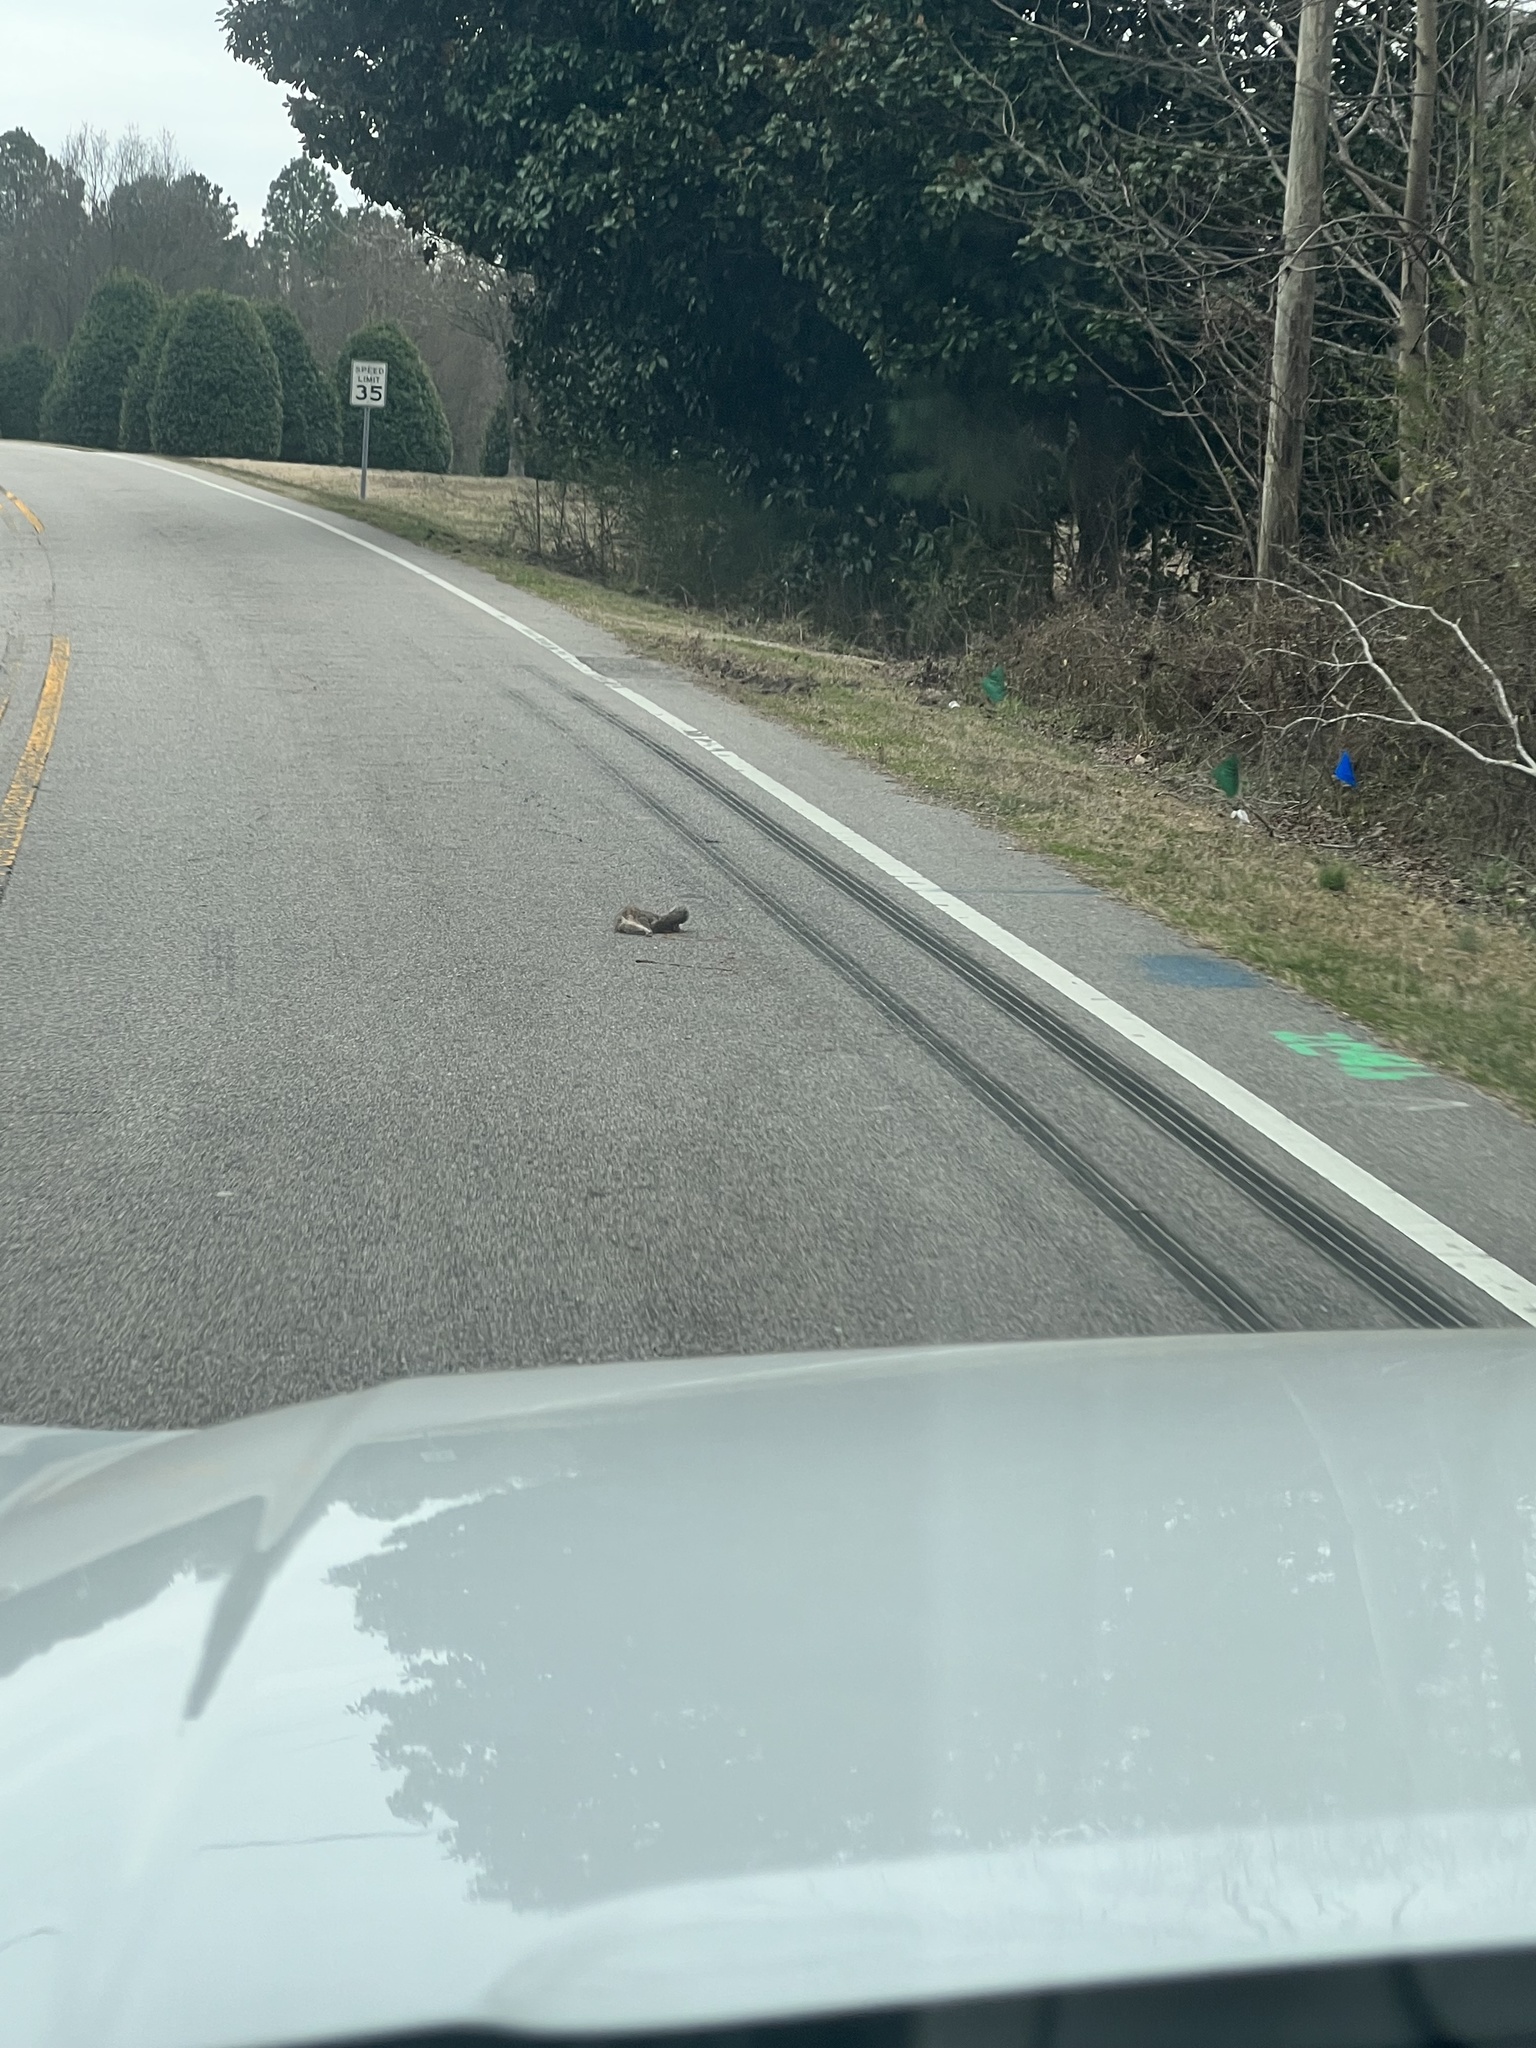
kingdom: Animalia
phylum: Chordata
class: Mammalia
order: Rodentia
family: Sciuridae
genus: Sciurus
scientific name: Sciurus carolinensis
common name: Eastern gray squirrel
